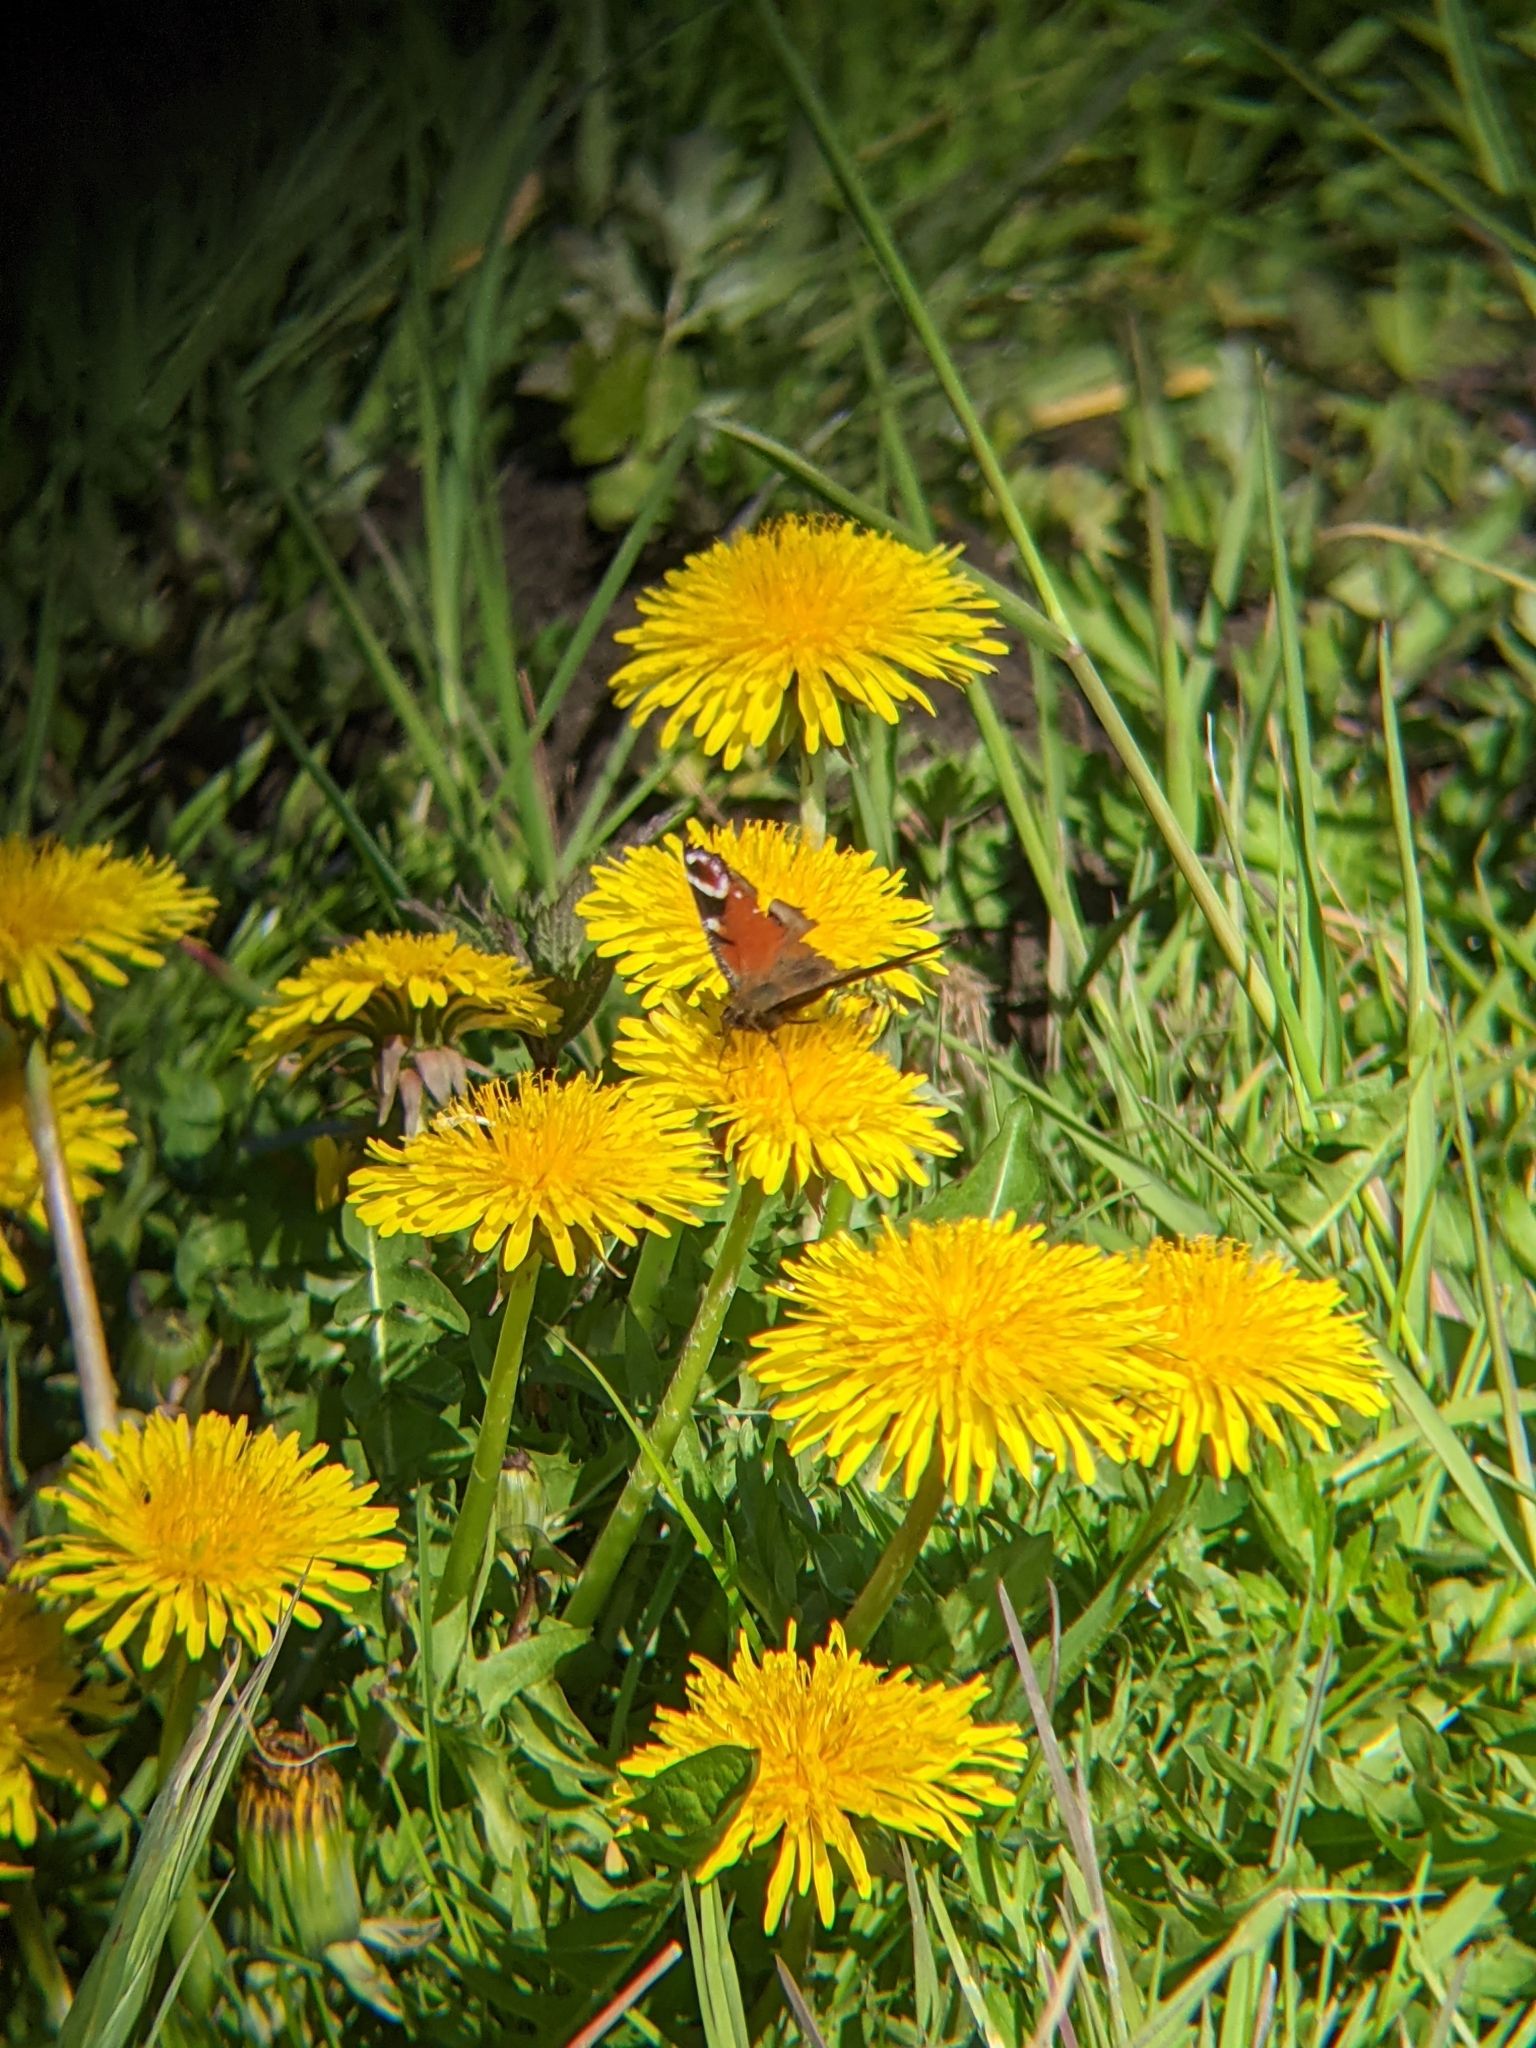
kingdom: Animalia
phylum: Arthropoda
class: Insecta
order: Lepidoptera
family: Nymphalidae
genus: Aglais
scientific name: Aglais io
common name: Peacock
